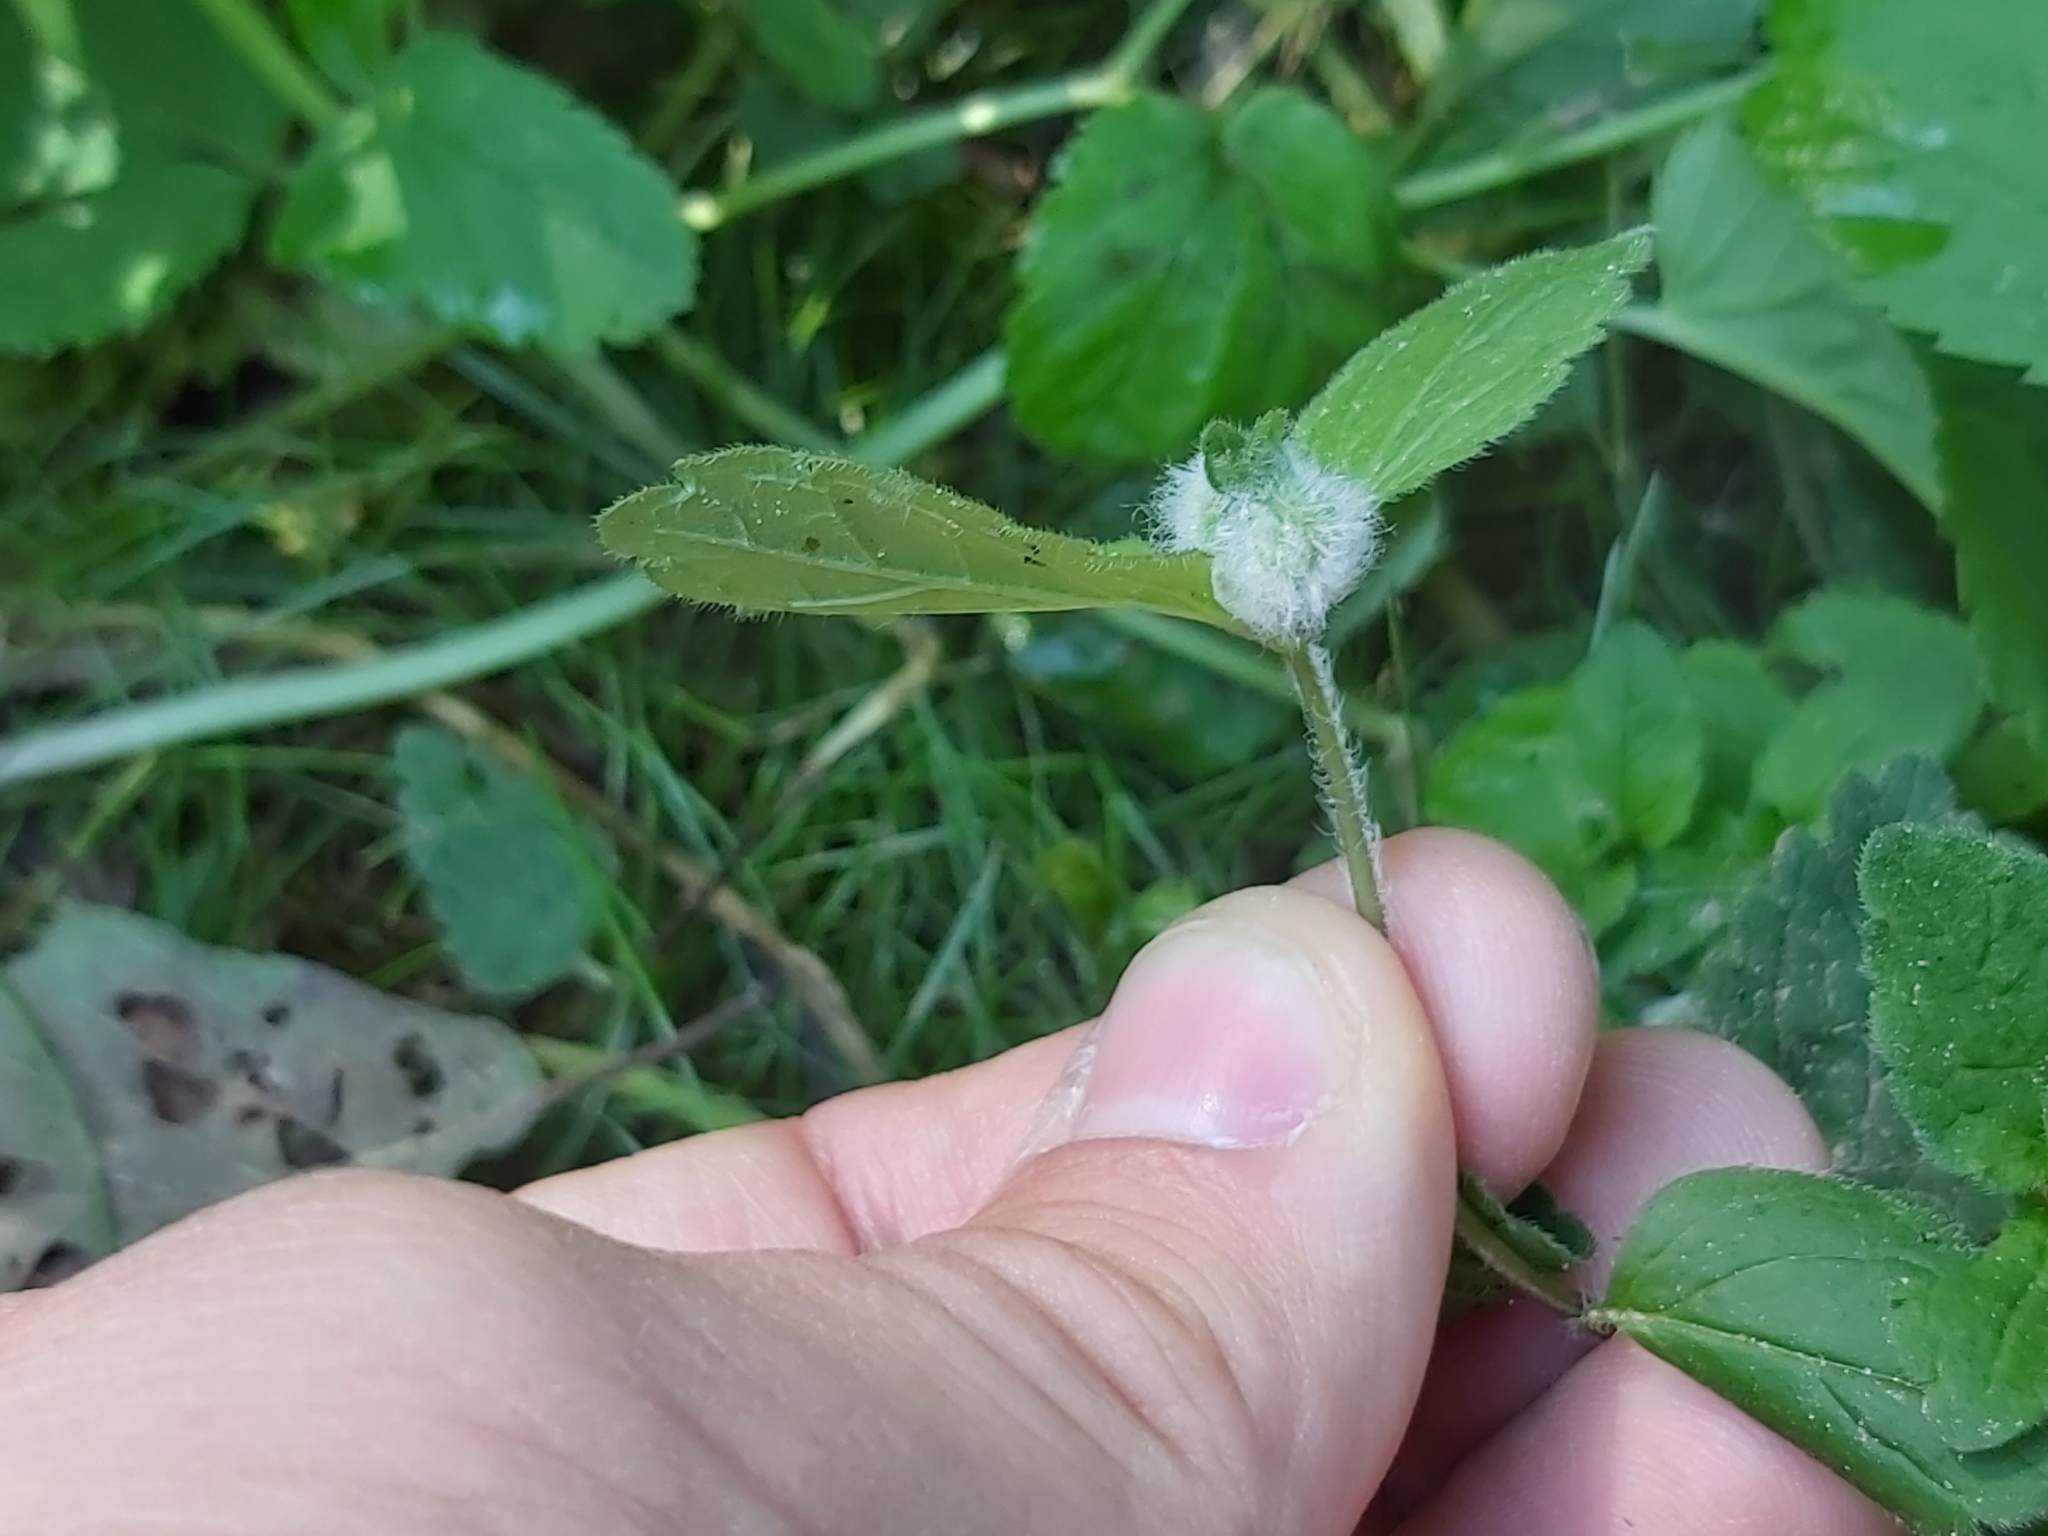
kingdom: Animalia
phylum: Arthropoda
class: Insecta
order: Diptera
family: Cecidomyiidae
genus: Jaapiella
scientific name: Jaapiella veronicae
